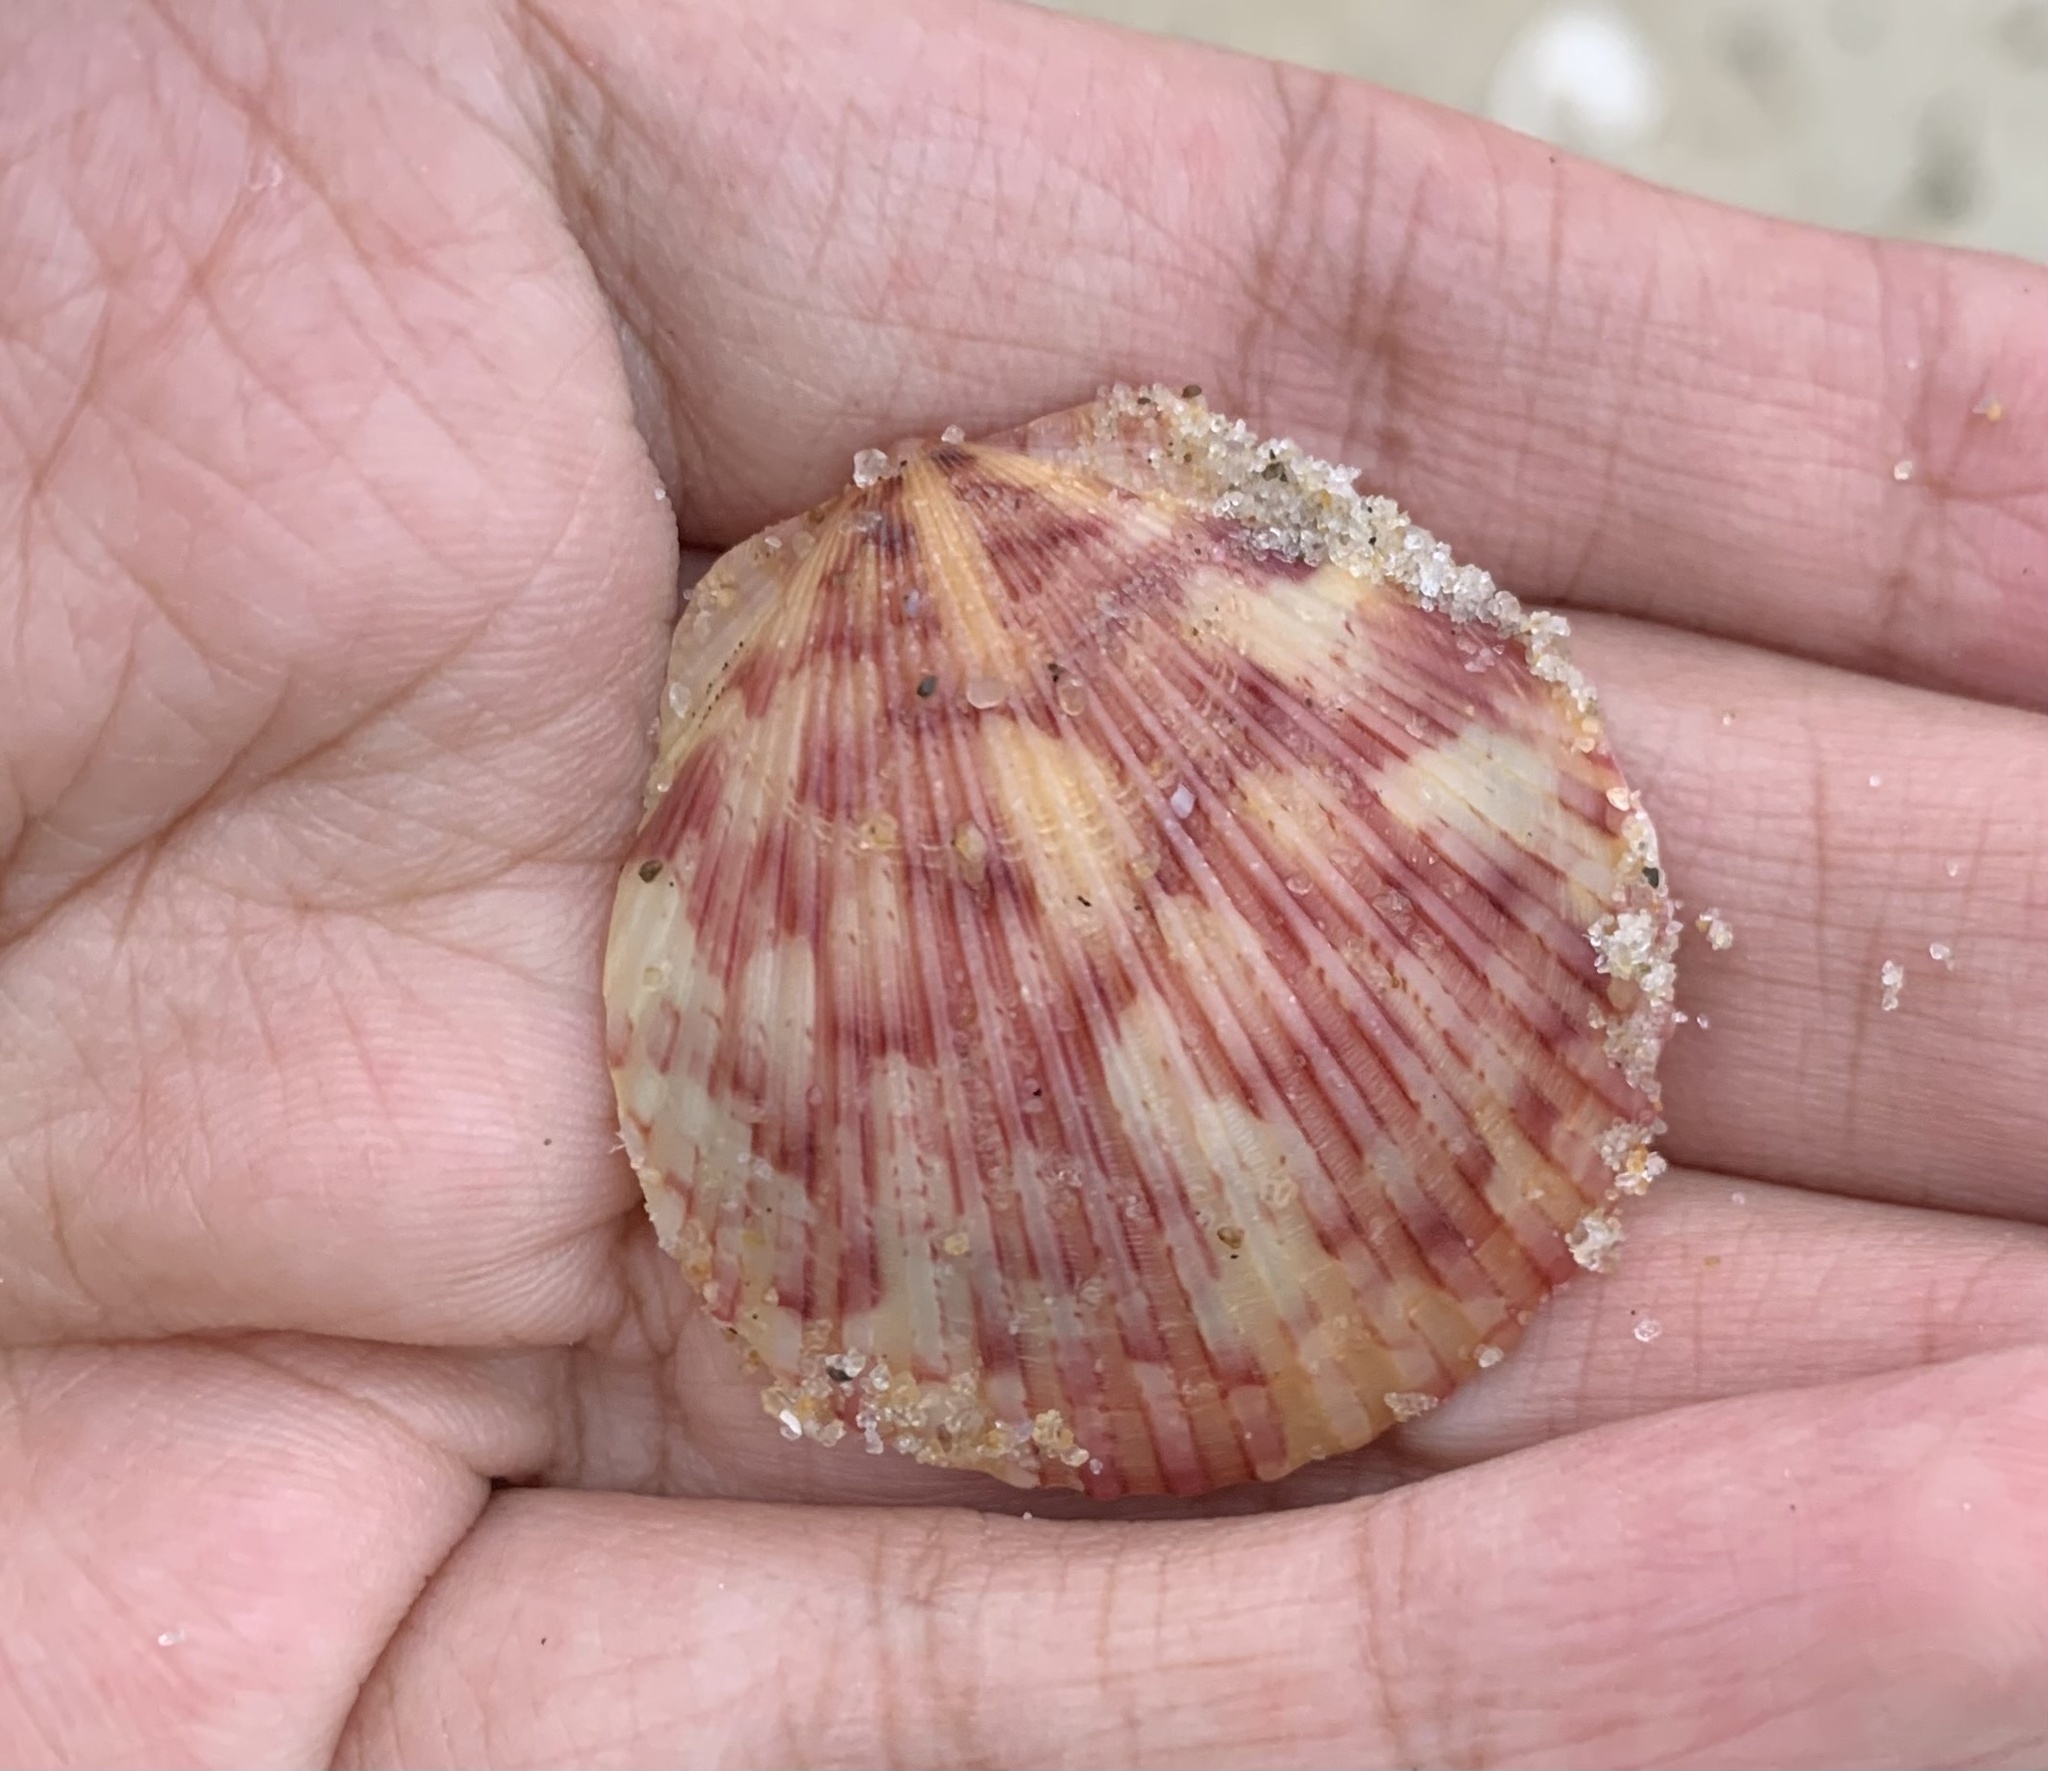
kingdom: Animalia
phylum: Mollusca
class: Bivalvia
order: Pectinida
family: Pectinidae
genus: Argopecten
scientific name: Argopecten gibbus
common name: Atlantic calico scallop
